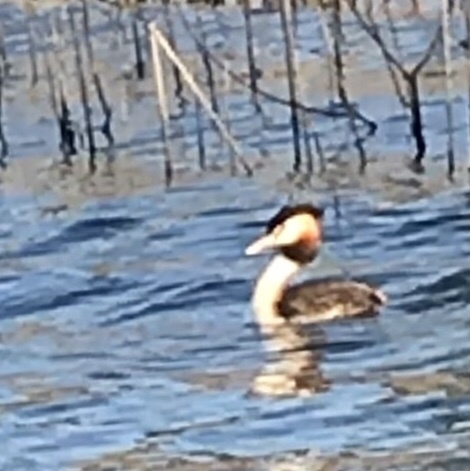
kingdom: Animalia
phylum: Chordata
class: Aves
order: Podicipediformes
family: Podicipedidae
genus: Podiceps
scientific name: Podiceps cristatus
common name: Great crested grebe
